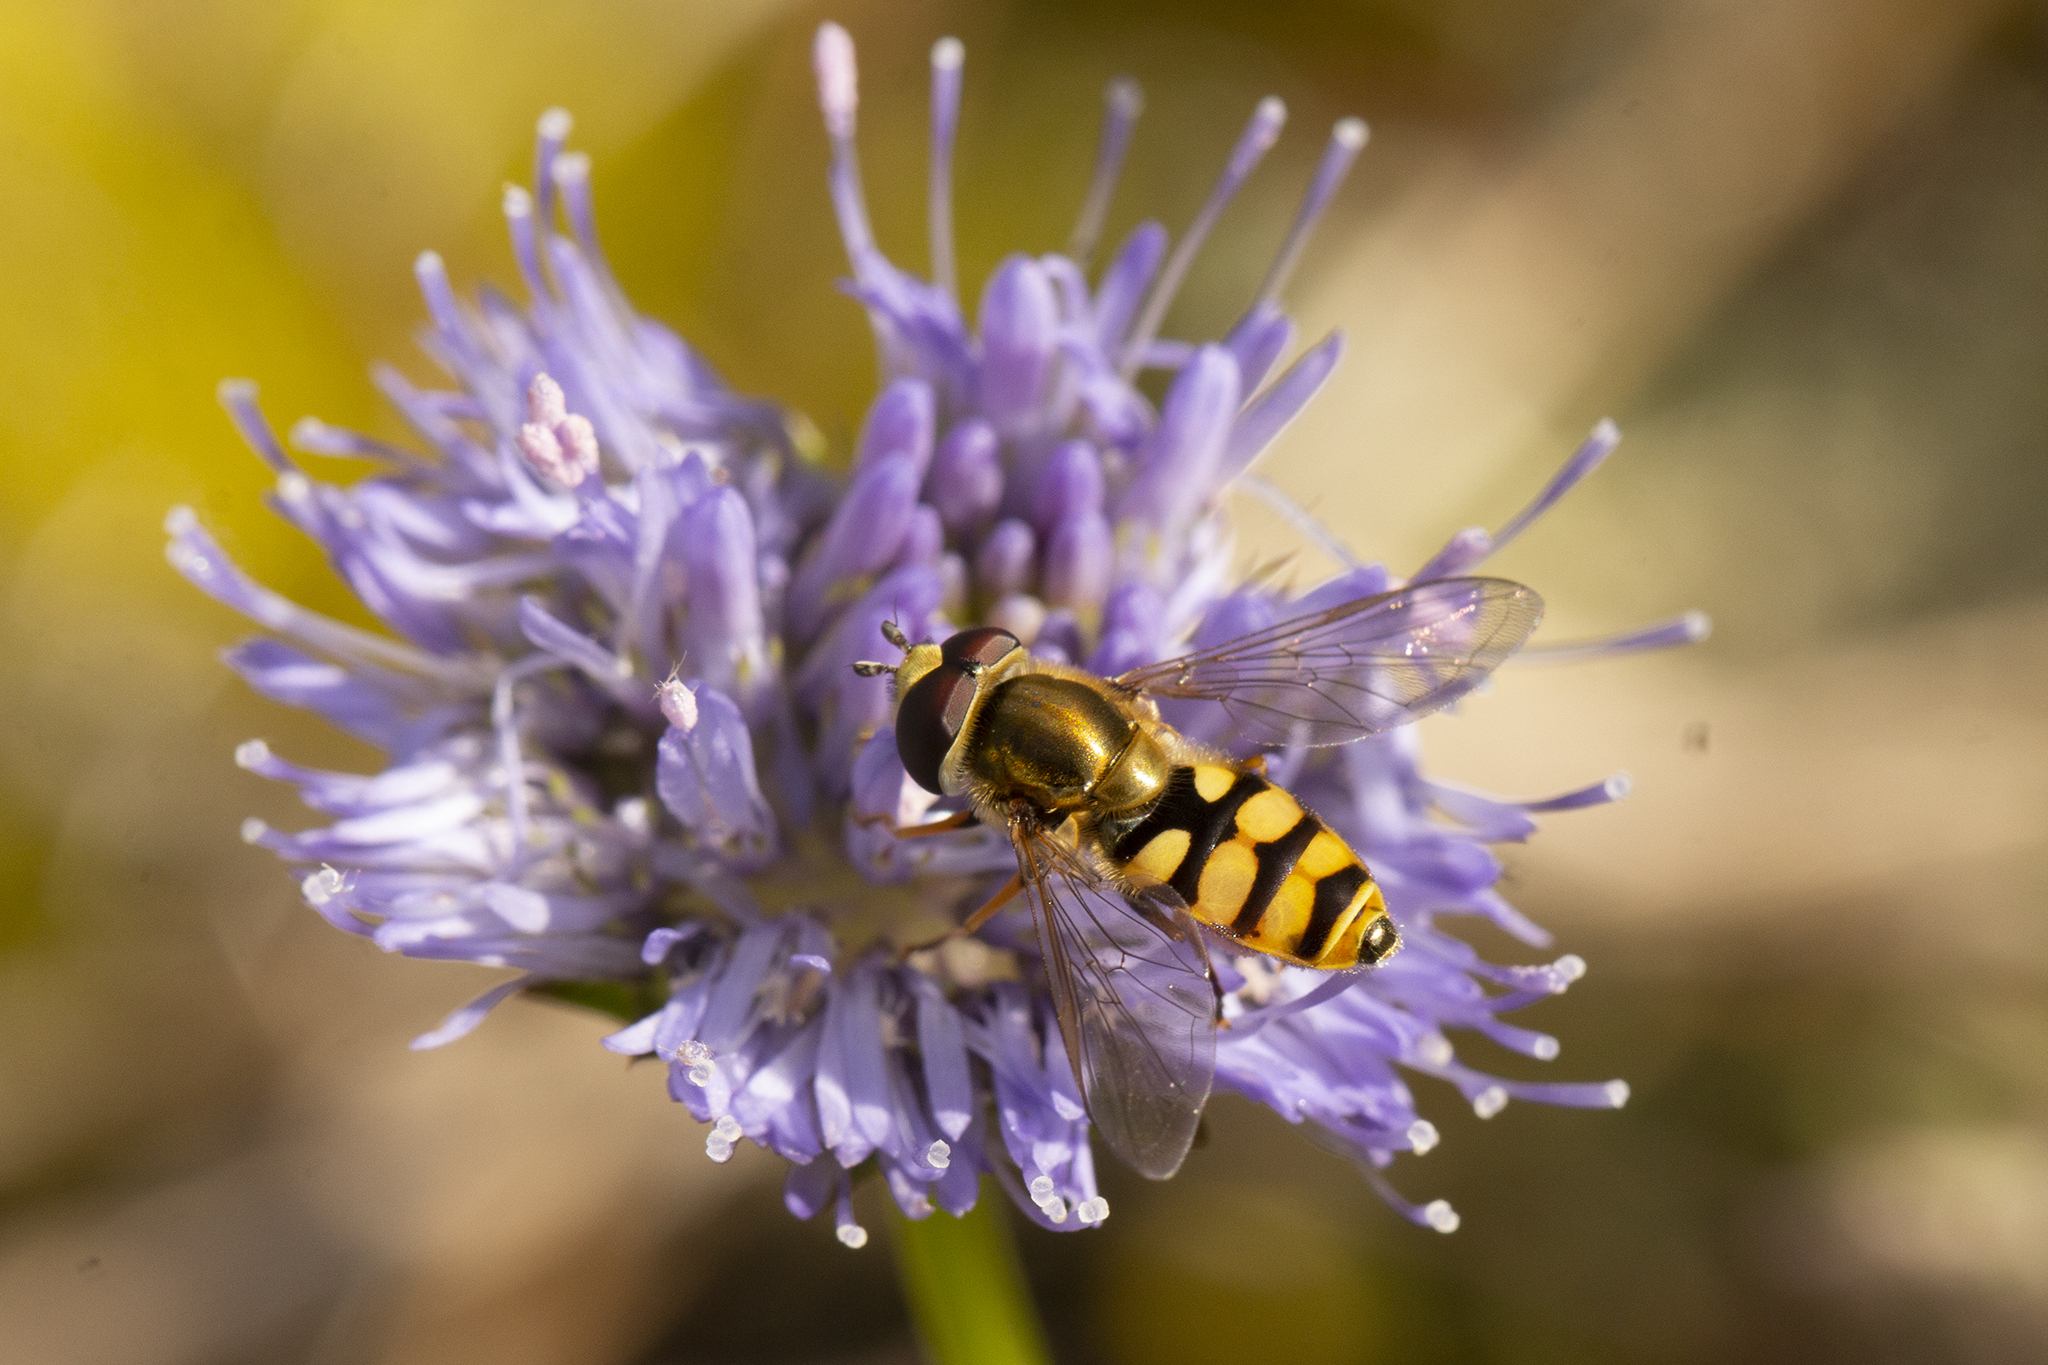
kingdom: Animalia
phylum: Arthropoda
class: Insecta
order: Diptera
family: Syrphidae
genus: Eupeodes
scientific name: Eupeodes corollae
